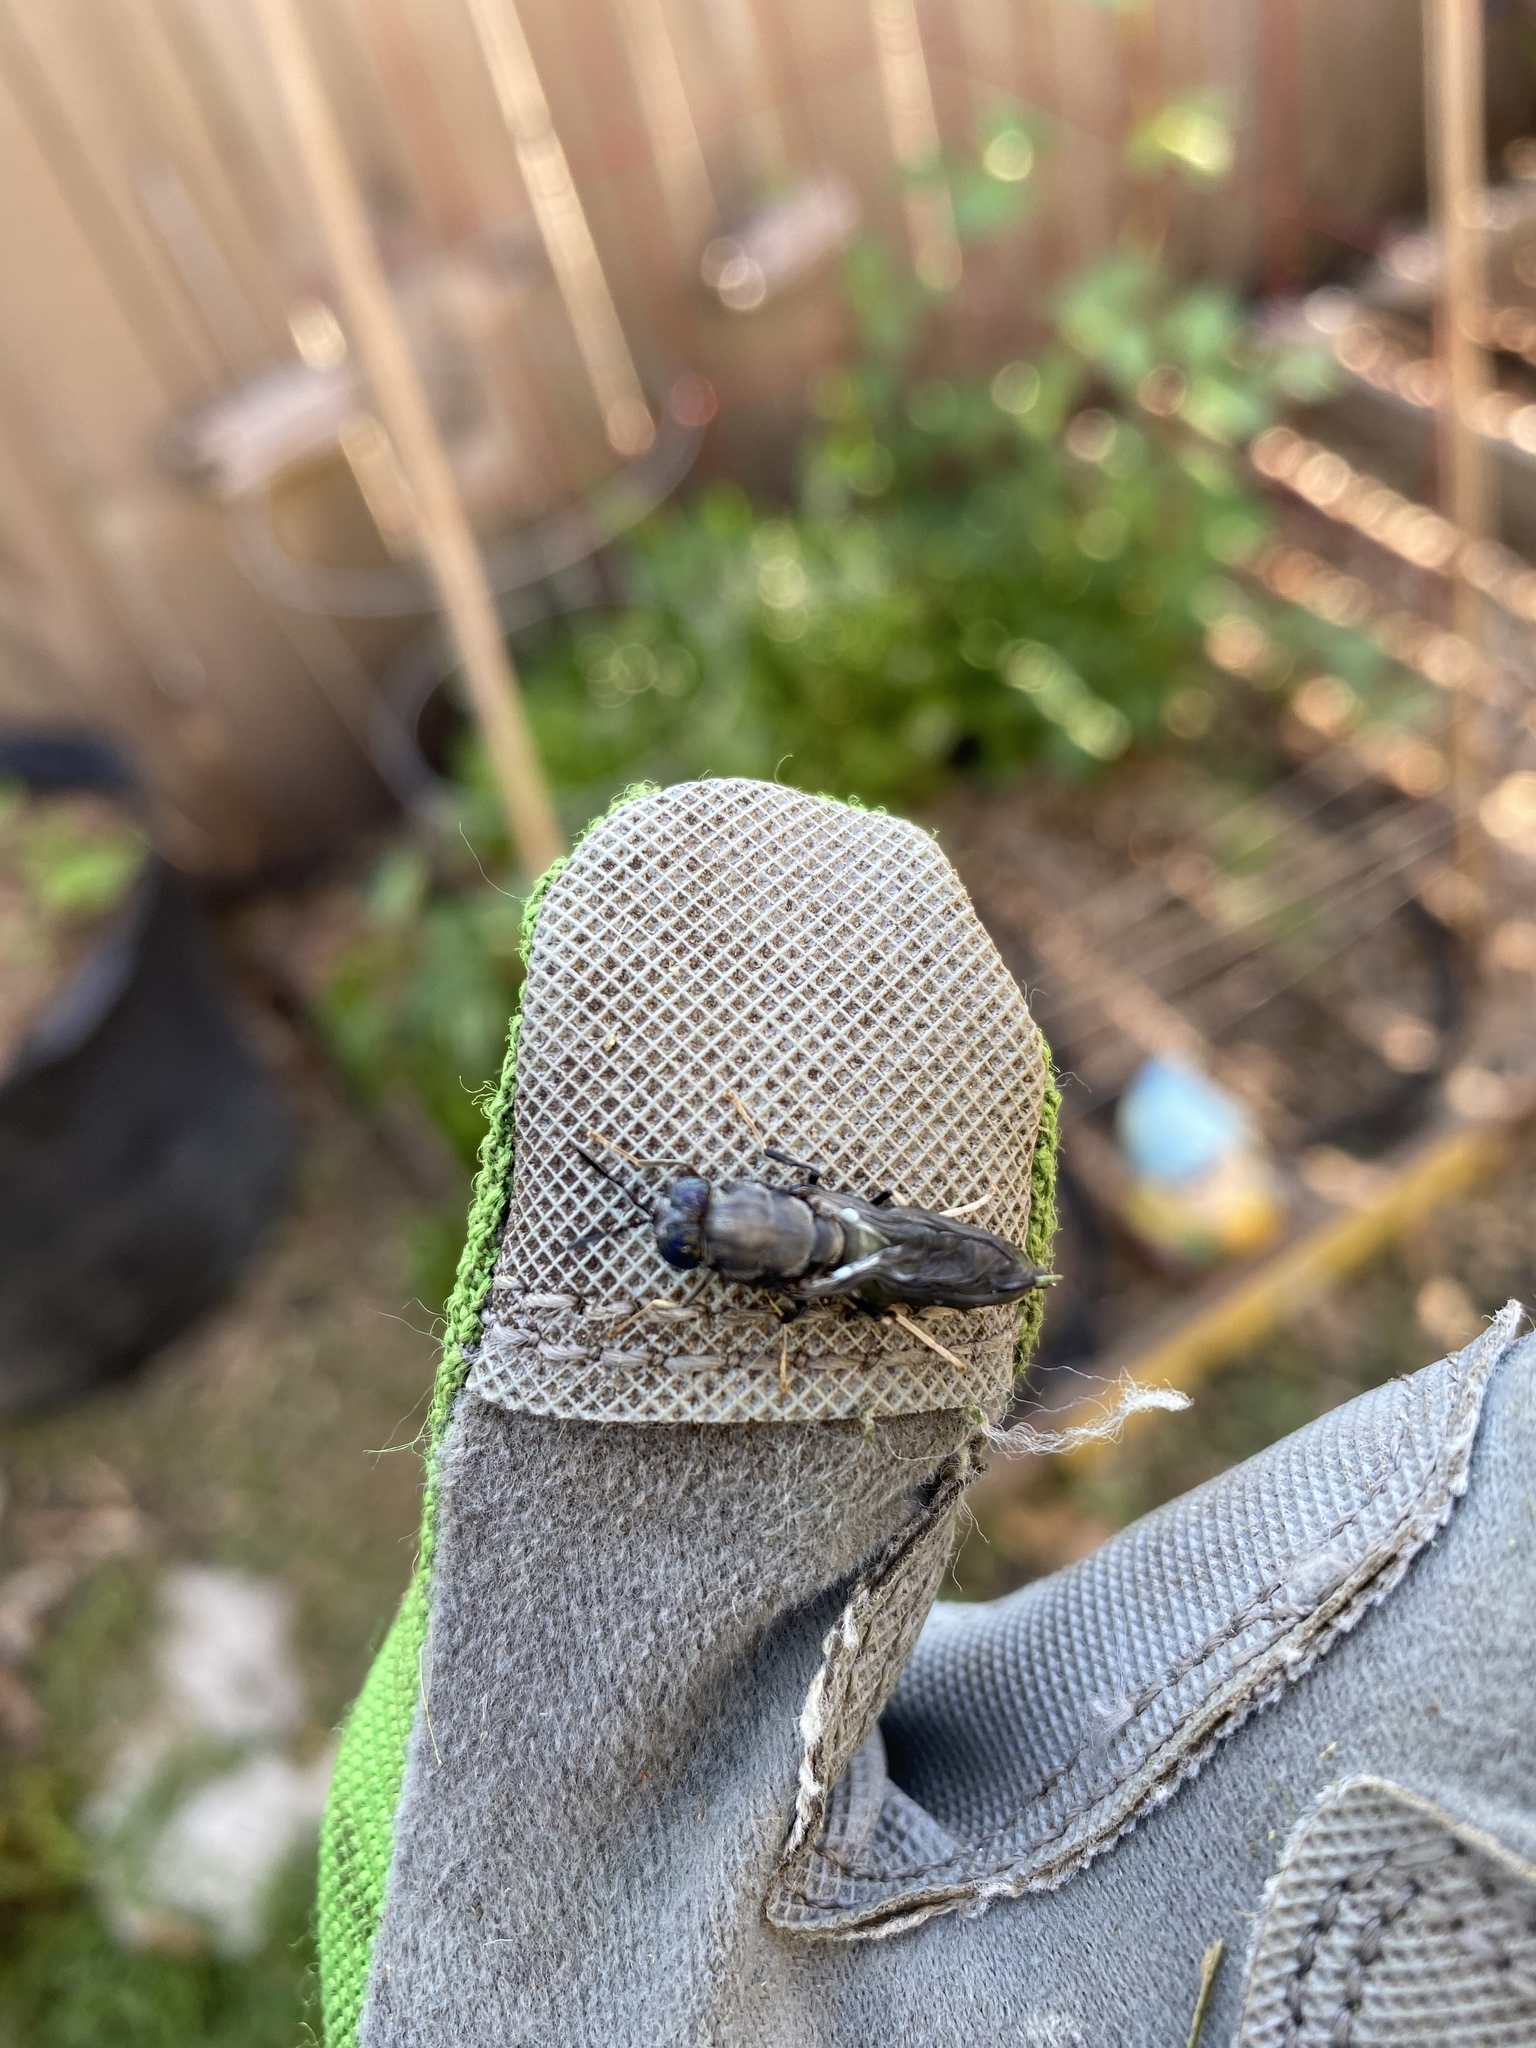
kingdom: Animalia
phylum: Arthropoda
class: Insecta
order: Diptera
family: Stratiomyidae
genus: Hermetia
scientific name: Hermetia illucens
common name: Black soldier fly
